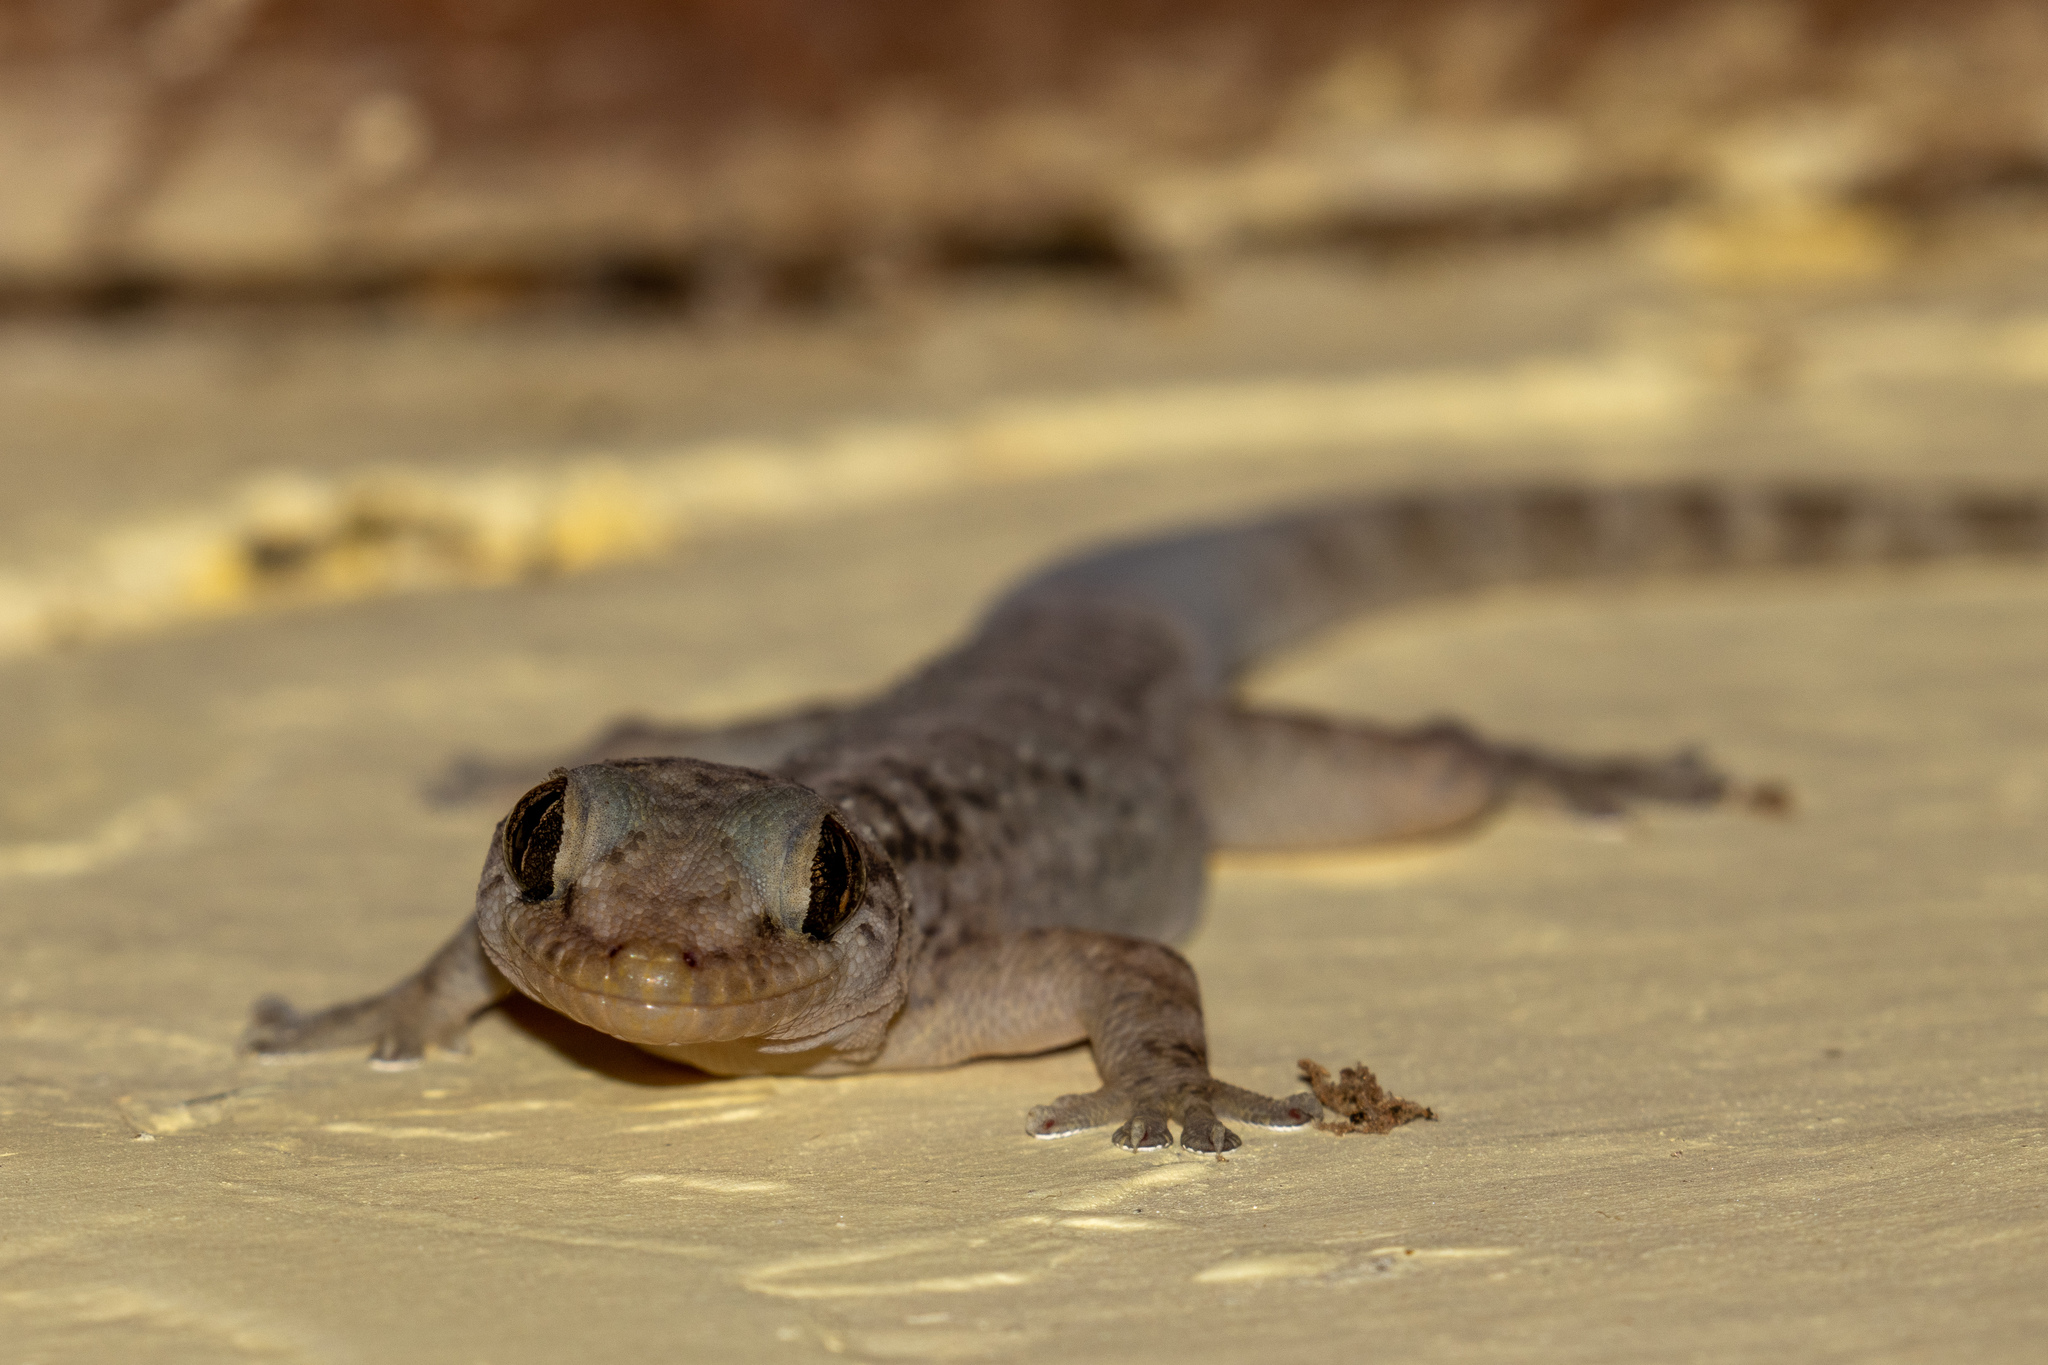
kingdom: Animalia
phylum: Chordata
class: Squamata
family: Phyllodactylidae
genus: Phyllopezus
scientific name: Phyllopezus pollicaris
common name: Brazilian gecko
